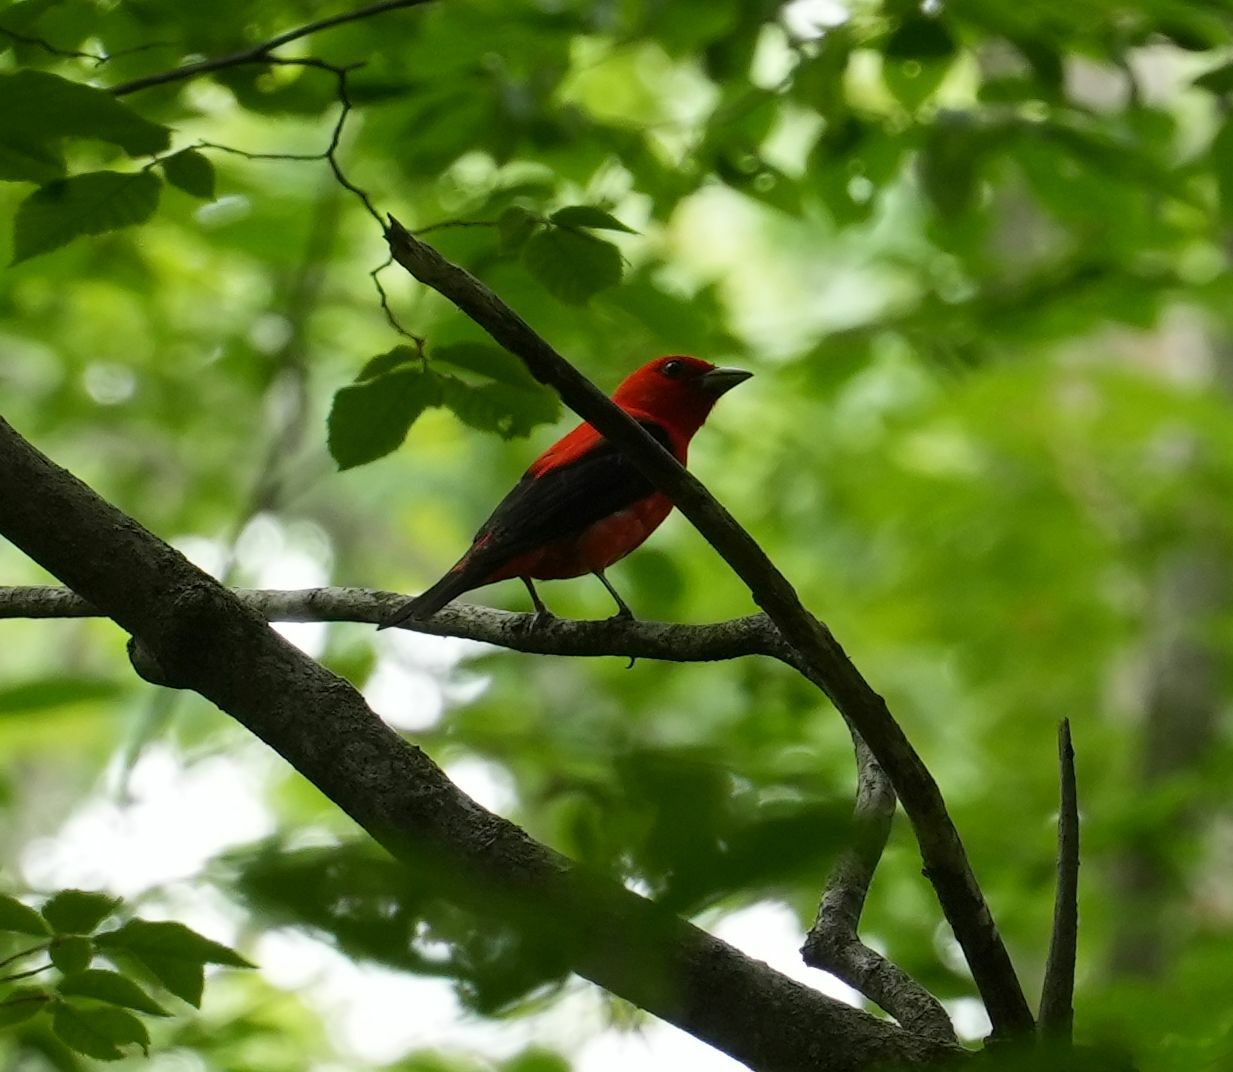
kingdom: Animalia
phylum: Chordata
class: Aves
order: Passeriformes
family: Cardinalidae
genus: Piranga
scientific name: Piranga olivacea
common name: Scarlet tanager
